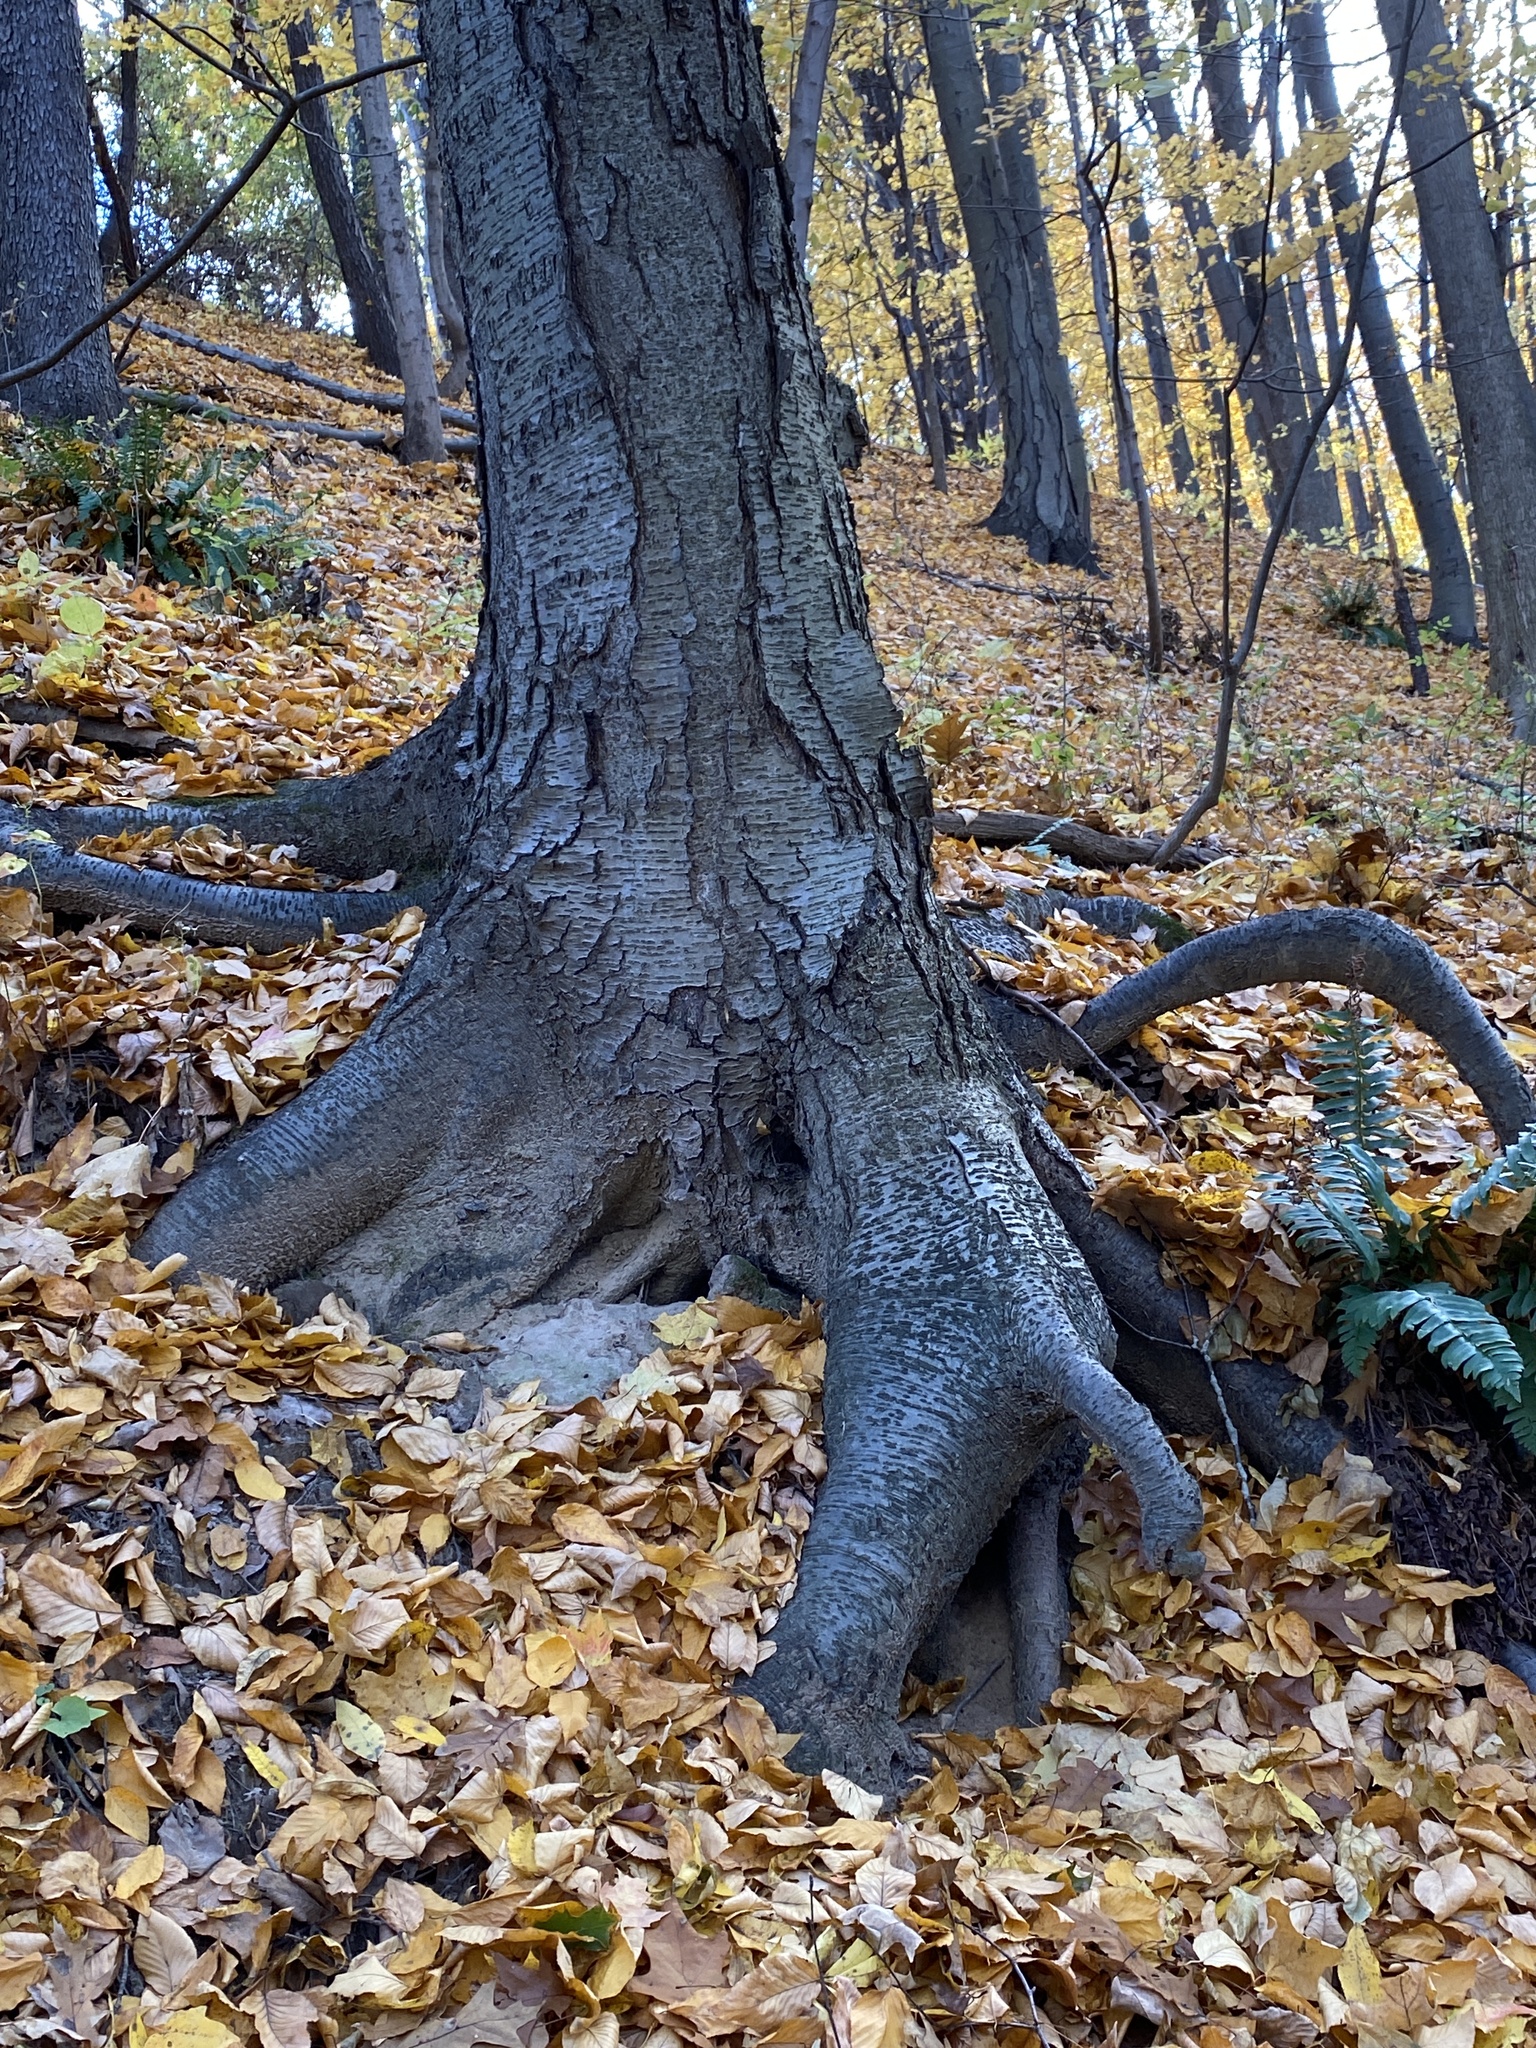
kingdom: Plantae
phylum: Tracheophyta
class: Magnoliopsida
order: Fagales
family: Betulaceae
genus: Betula
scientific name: Betula lenta
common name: Black birch
